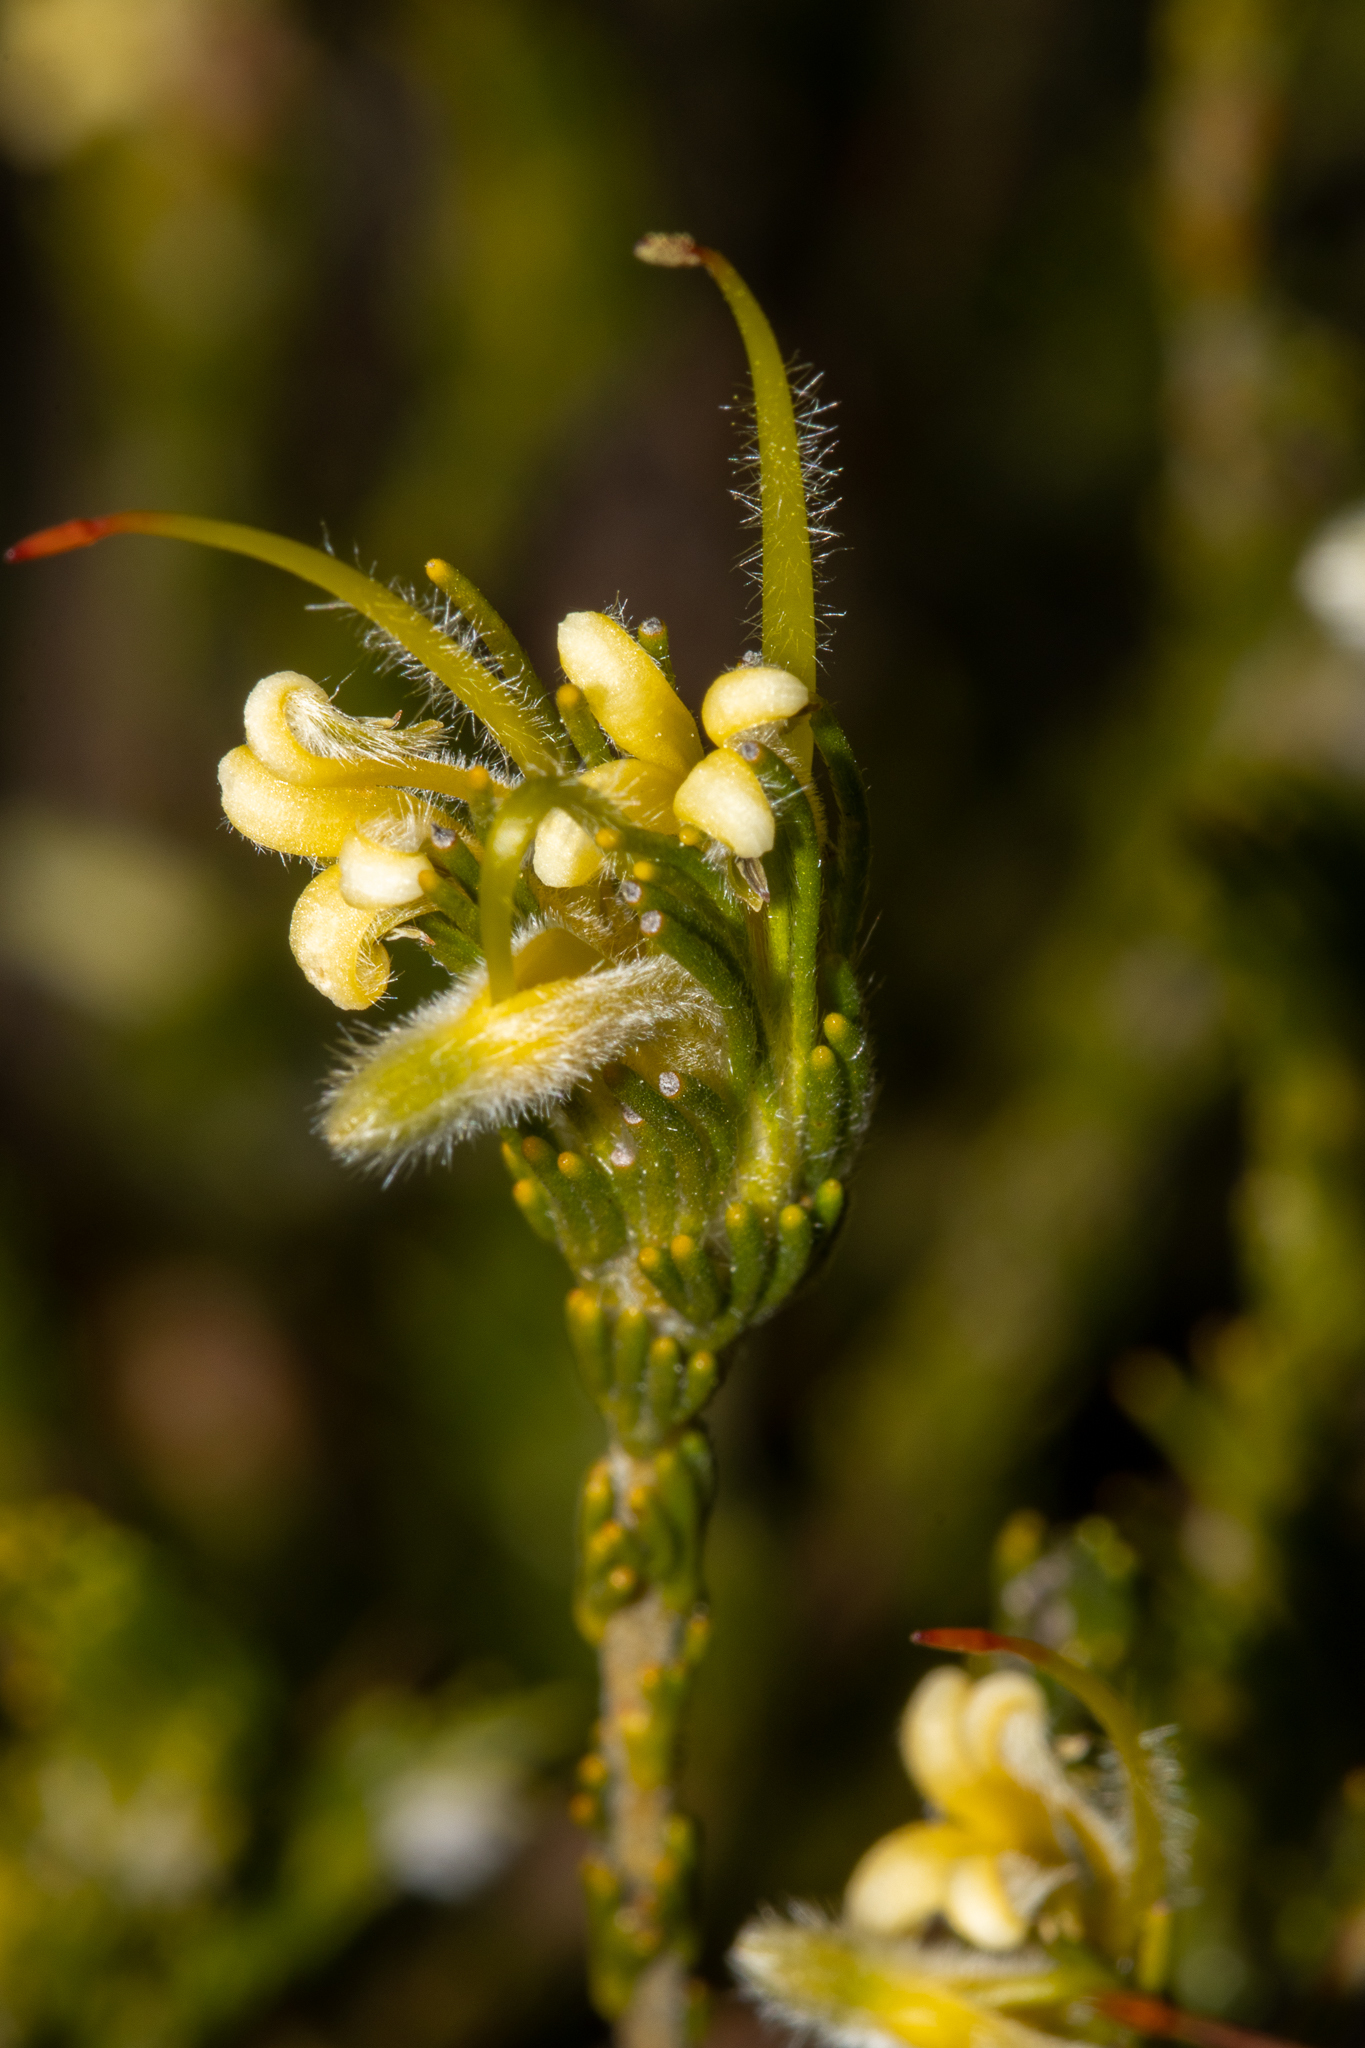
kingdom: Plantae
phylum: Tracheophyta
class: Magnoliopsida
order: Proteales
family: Proteaceae
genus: Adenanthos
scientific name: Adenanthos terminalis
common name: Yellow gland-flower
